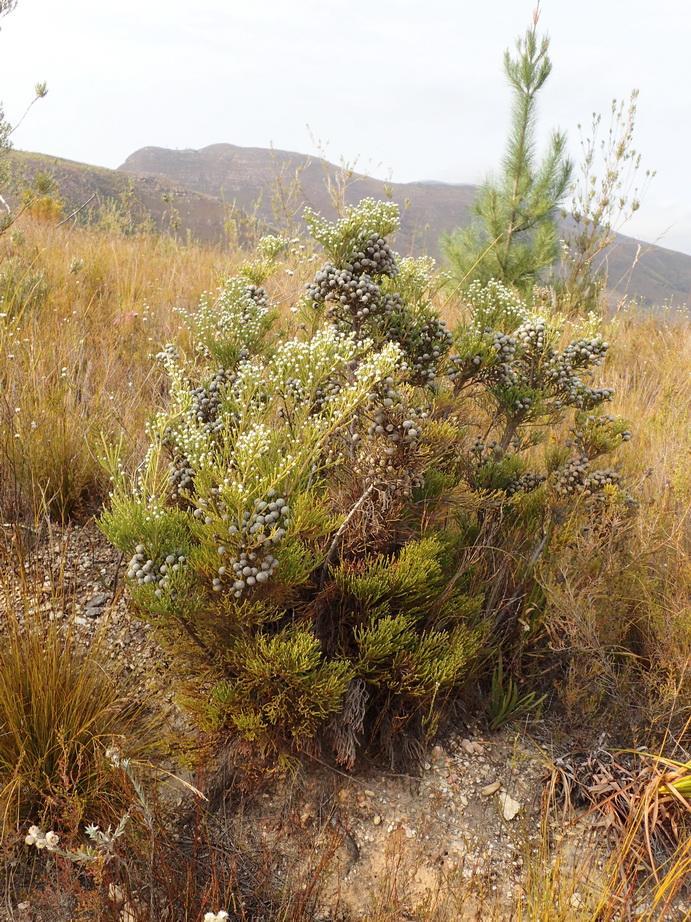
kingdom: Plantae
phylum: Tracheophyta
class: Magnoliopsida
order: Bruniales
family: Bruniaceae
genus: Brunia
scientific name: Brunia noduliflora
